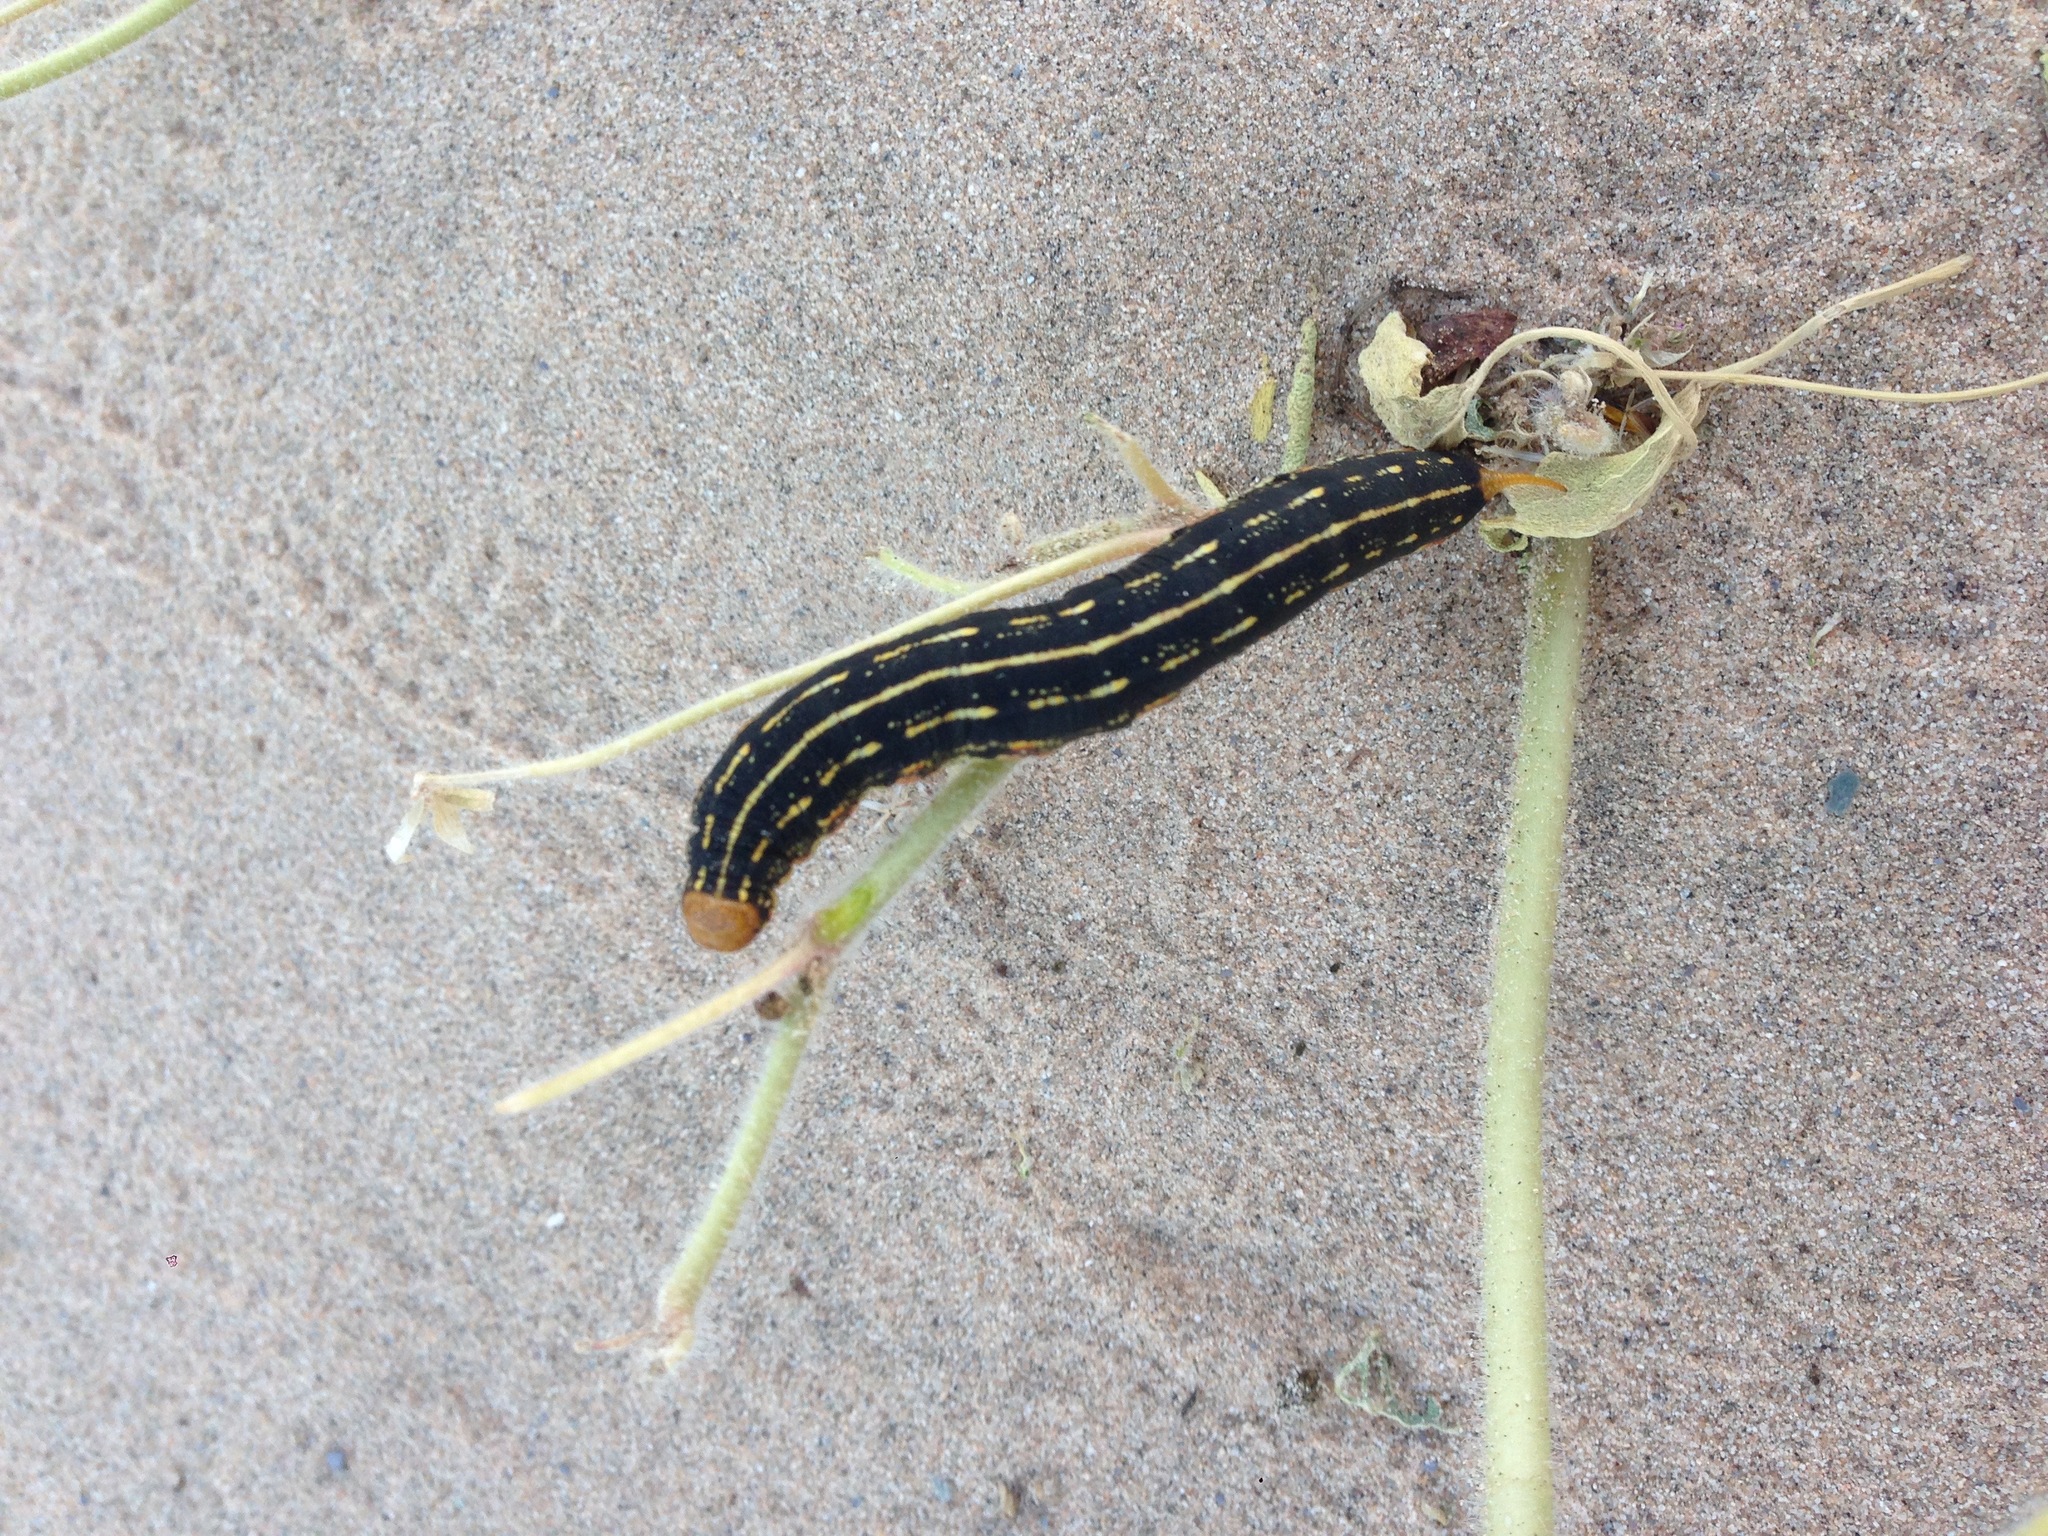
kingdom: Animalia
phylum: Arthropoda
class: Insecta
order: Lepidoptera
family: Sphingidae
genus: Hyles
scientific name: Hyles lineata
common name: White-lined sphinx
